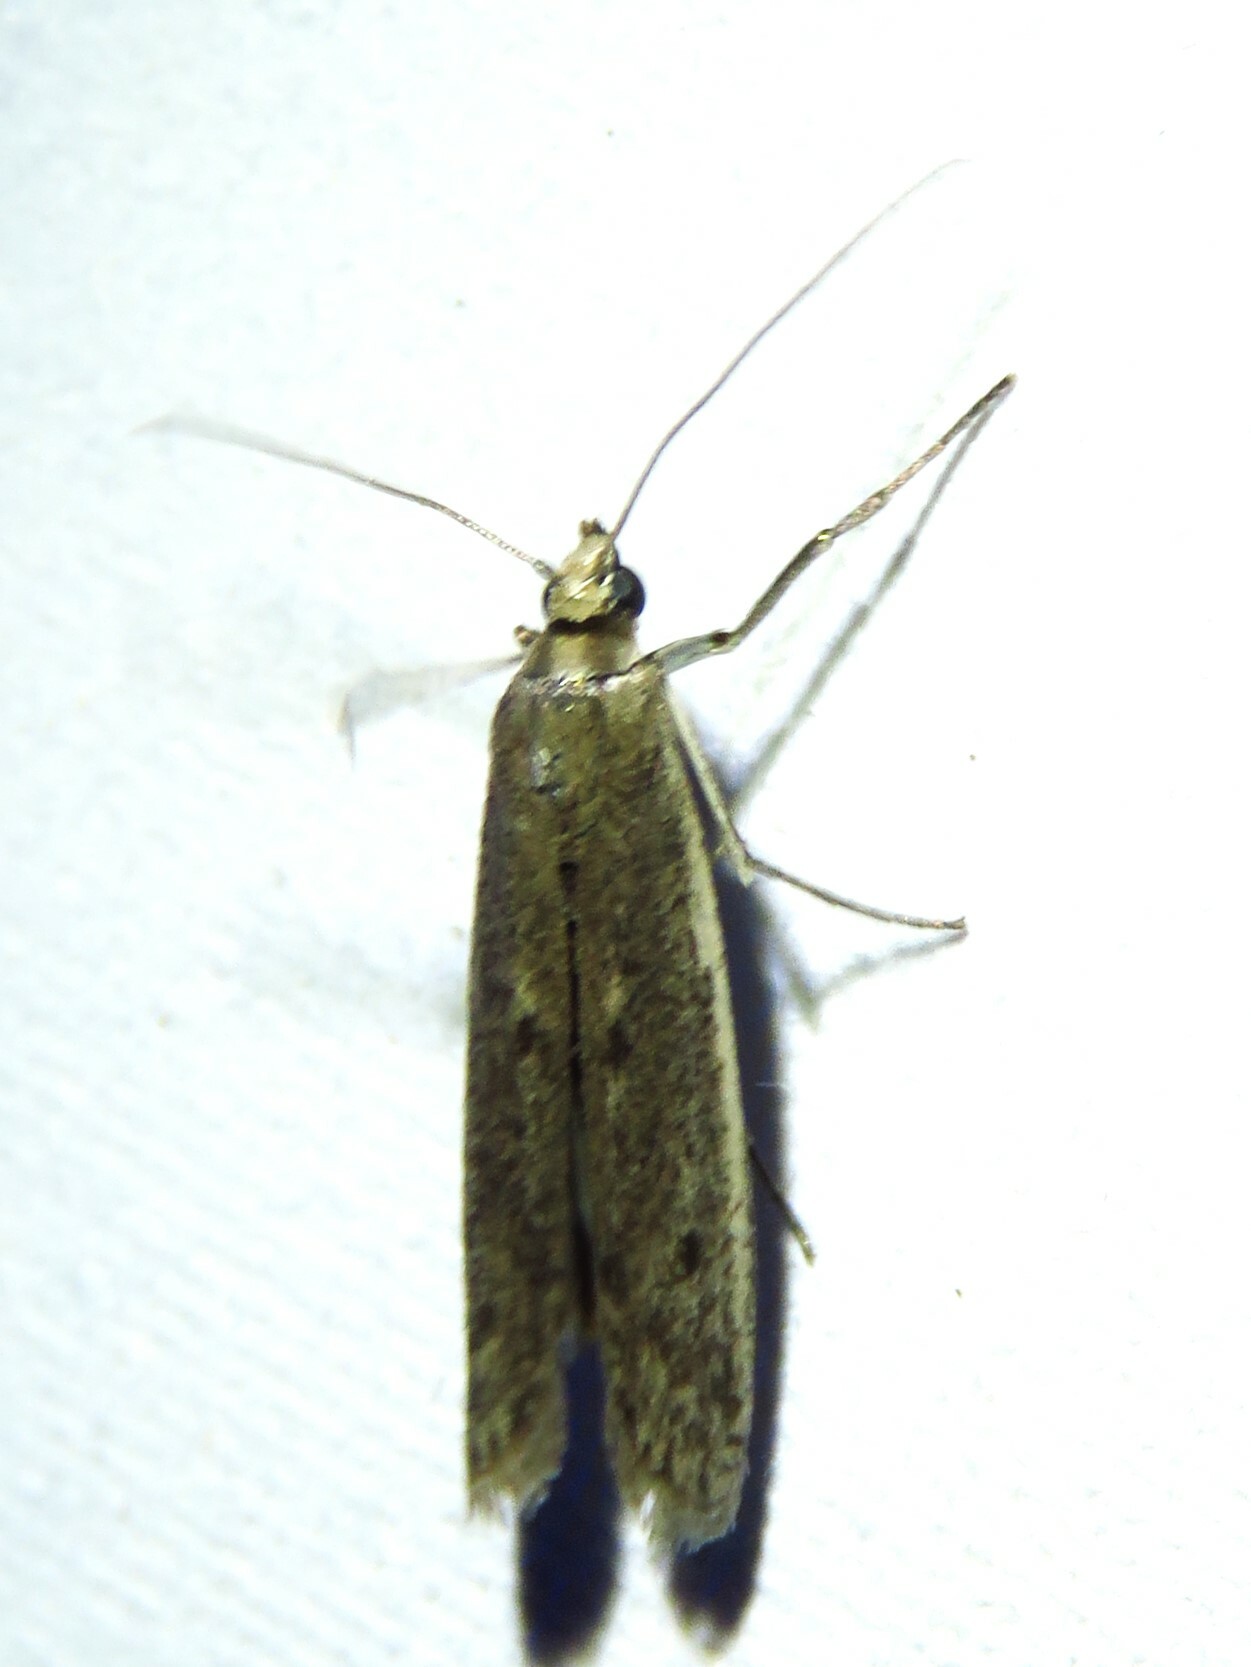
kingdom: Animalia
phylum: Arthropoda
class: Insecta
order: Lepidoptera
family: Pyralidae
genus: Homoeosoma
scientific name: Homoeosoma electella
